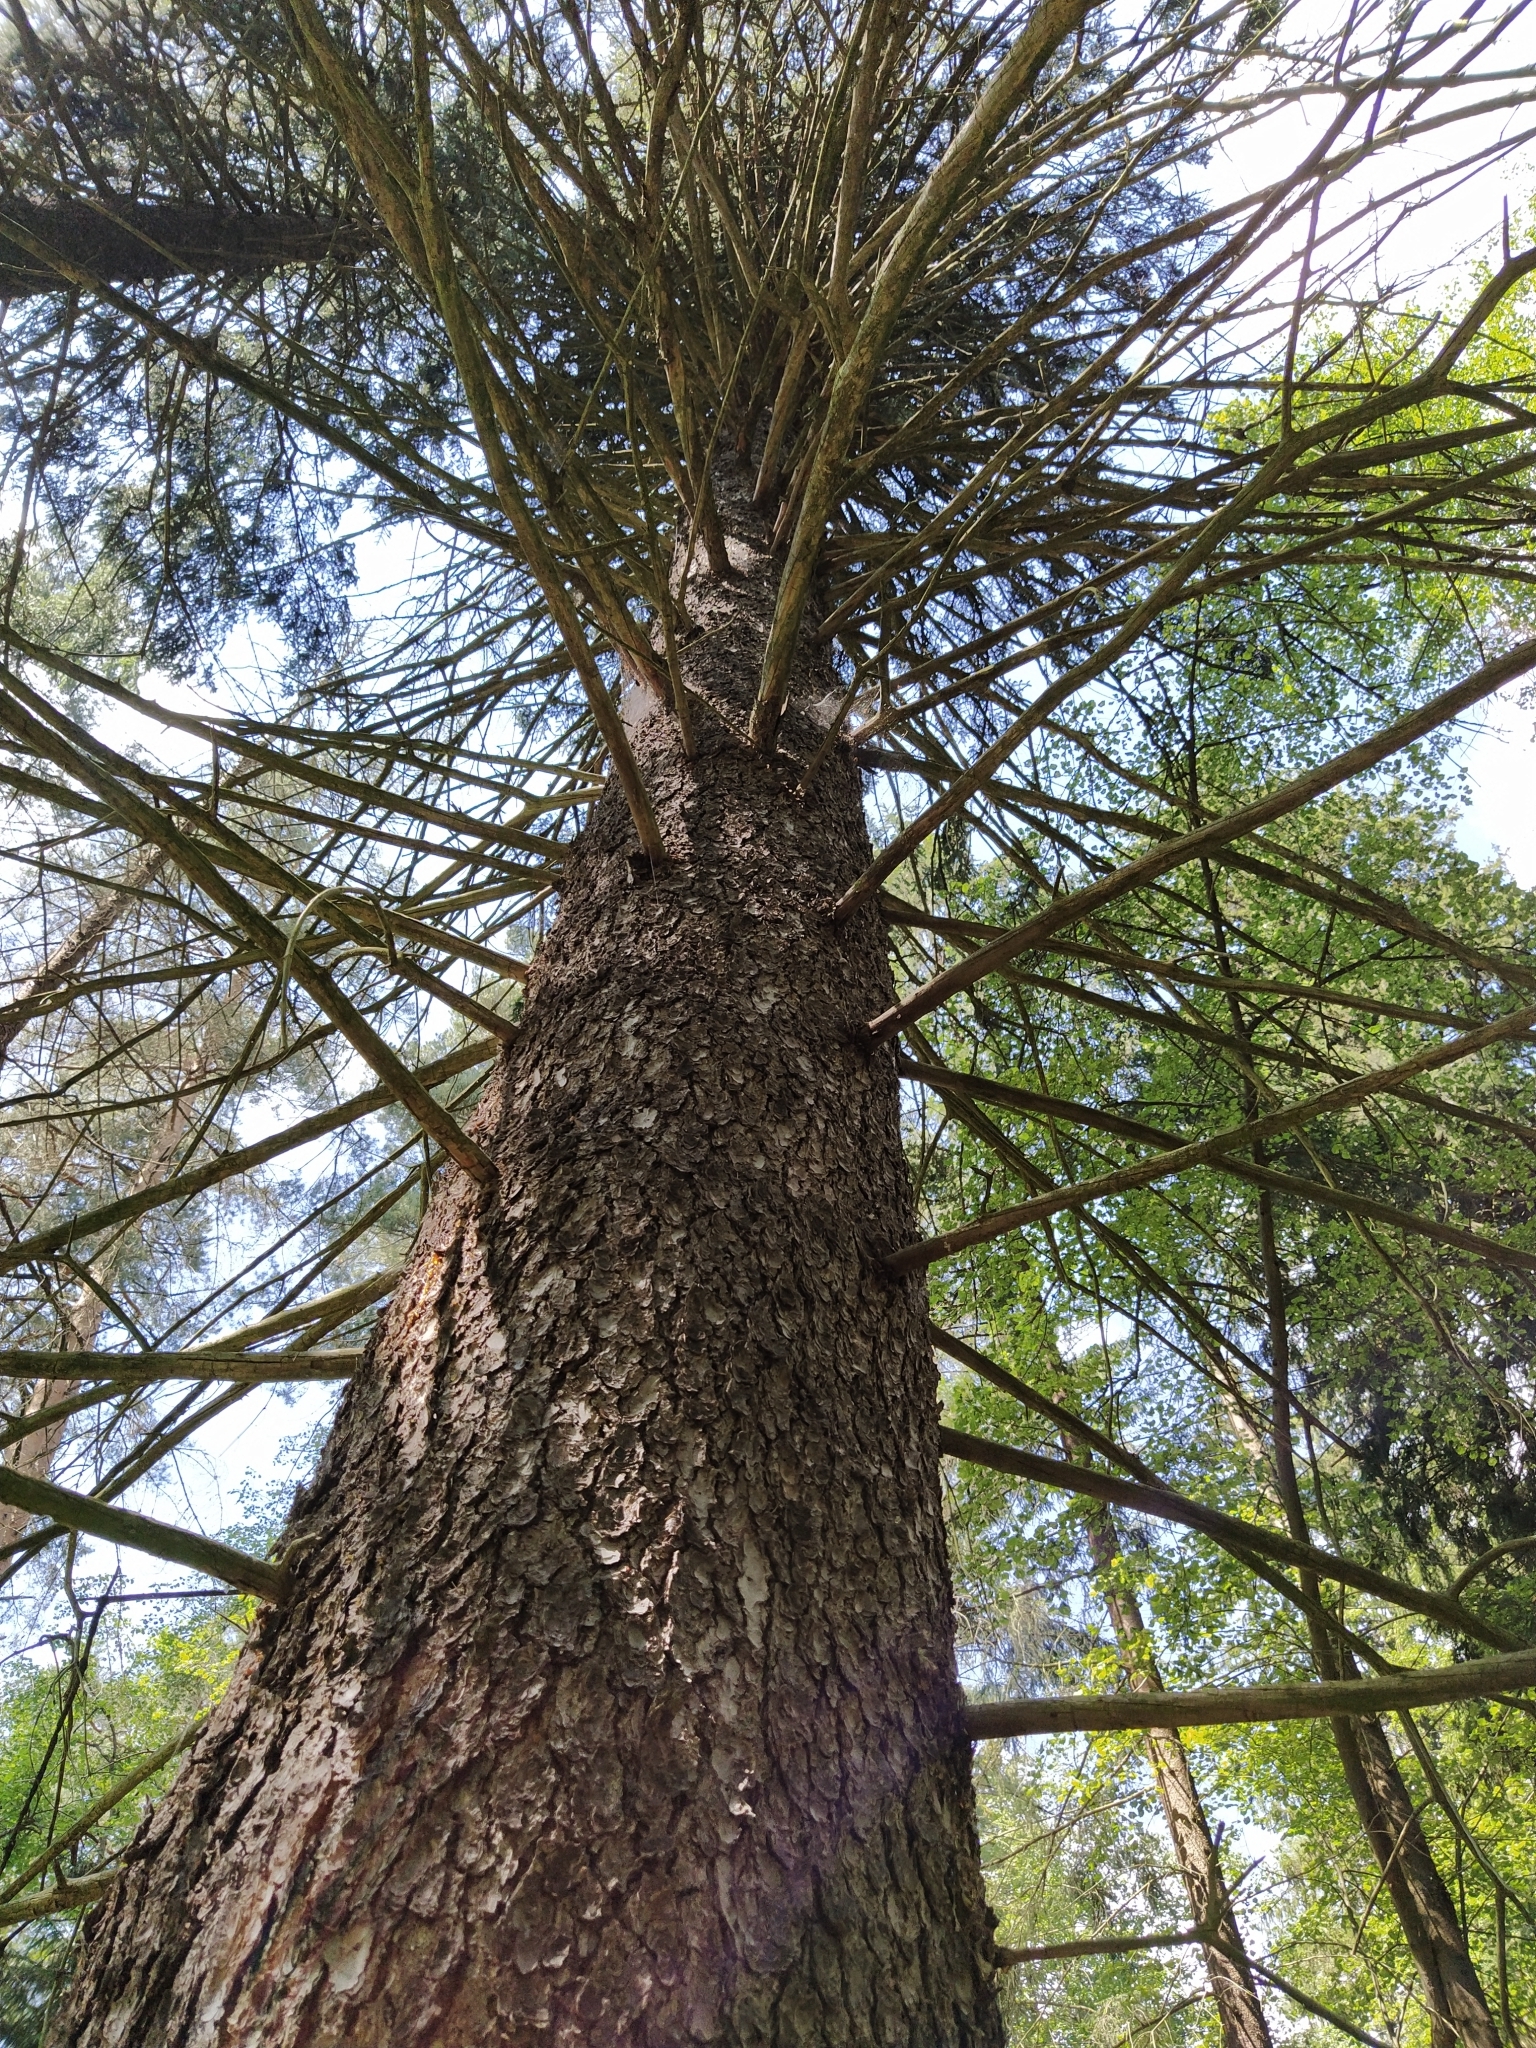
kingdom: Plantae
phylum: Tracheophyta
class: Pinopsida
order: Pinales
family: Pinaceae
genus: Picea
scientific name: Picea abies
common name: Norway spruce
